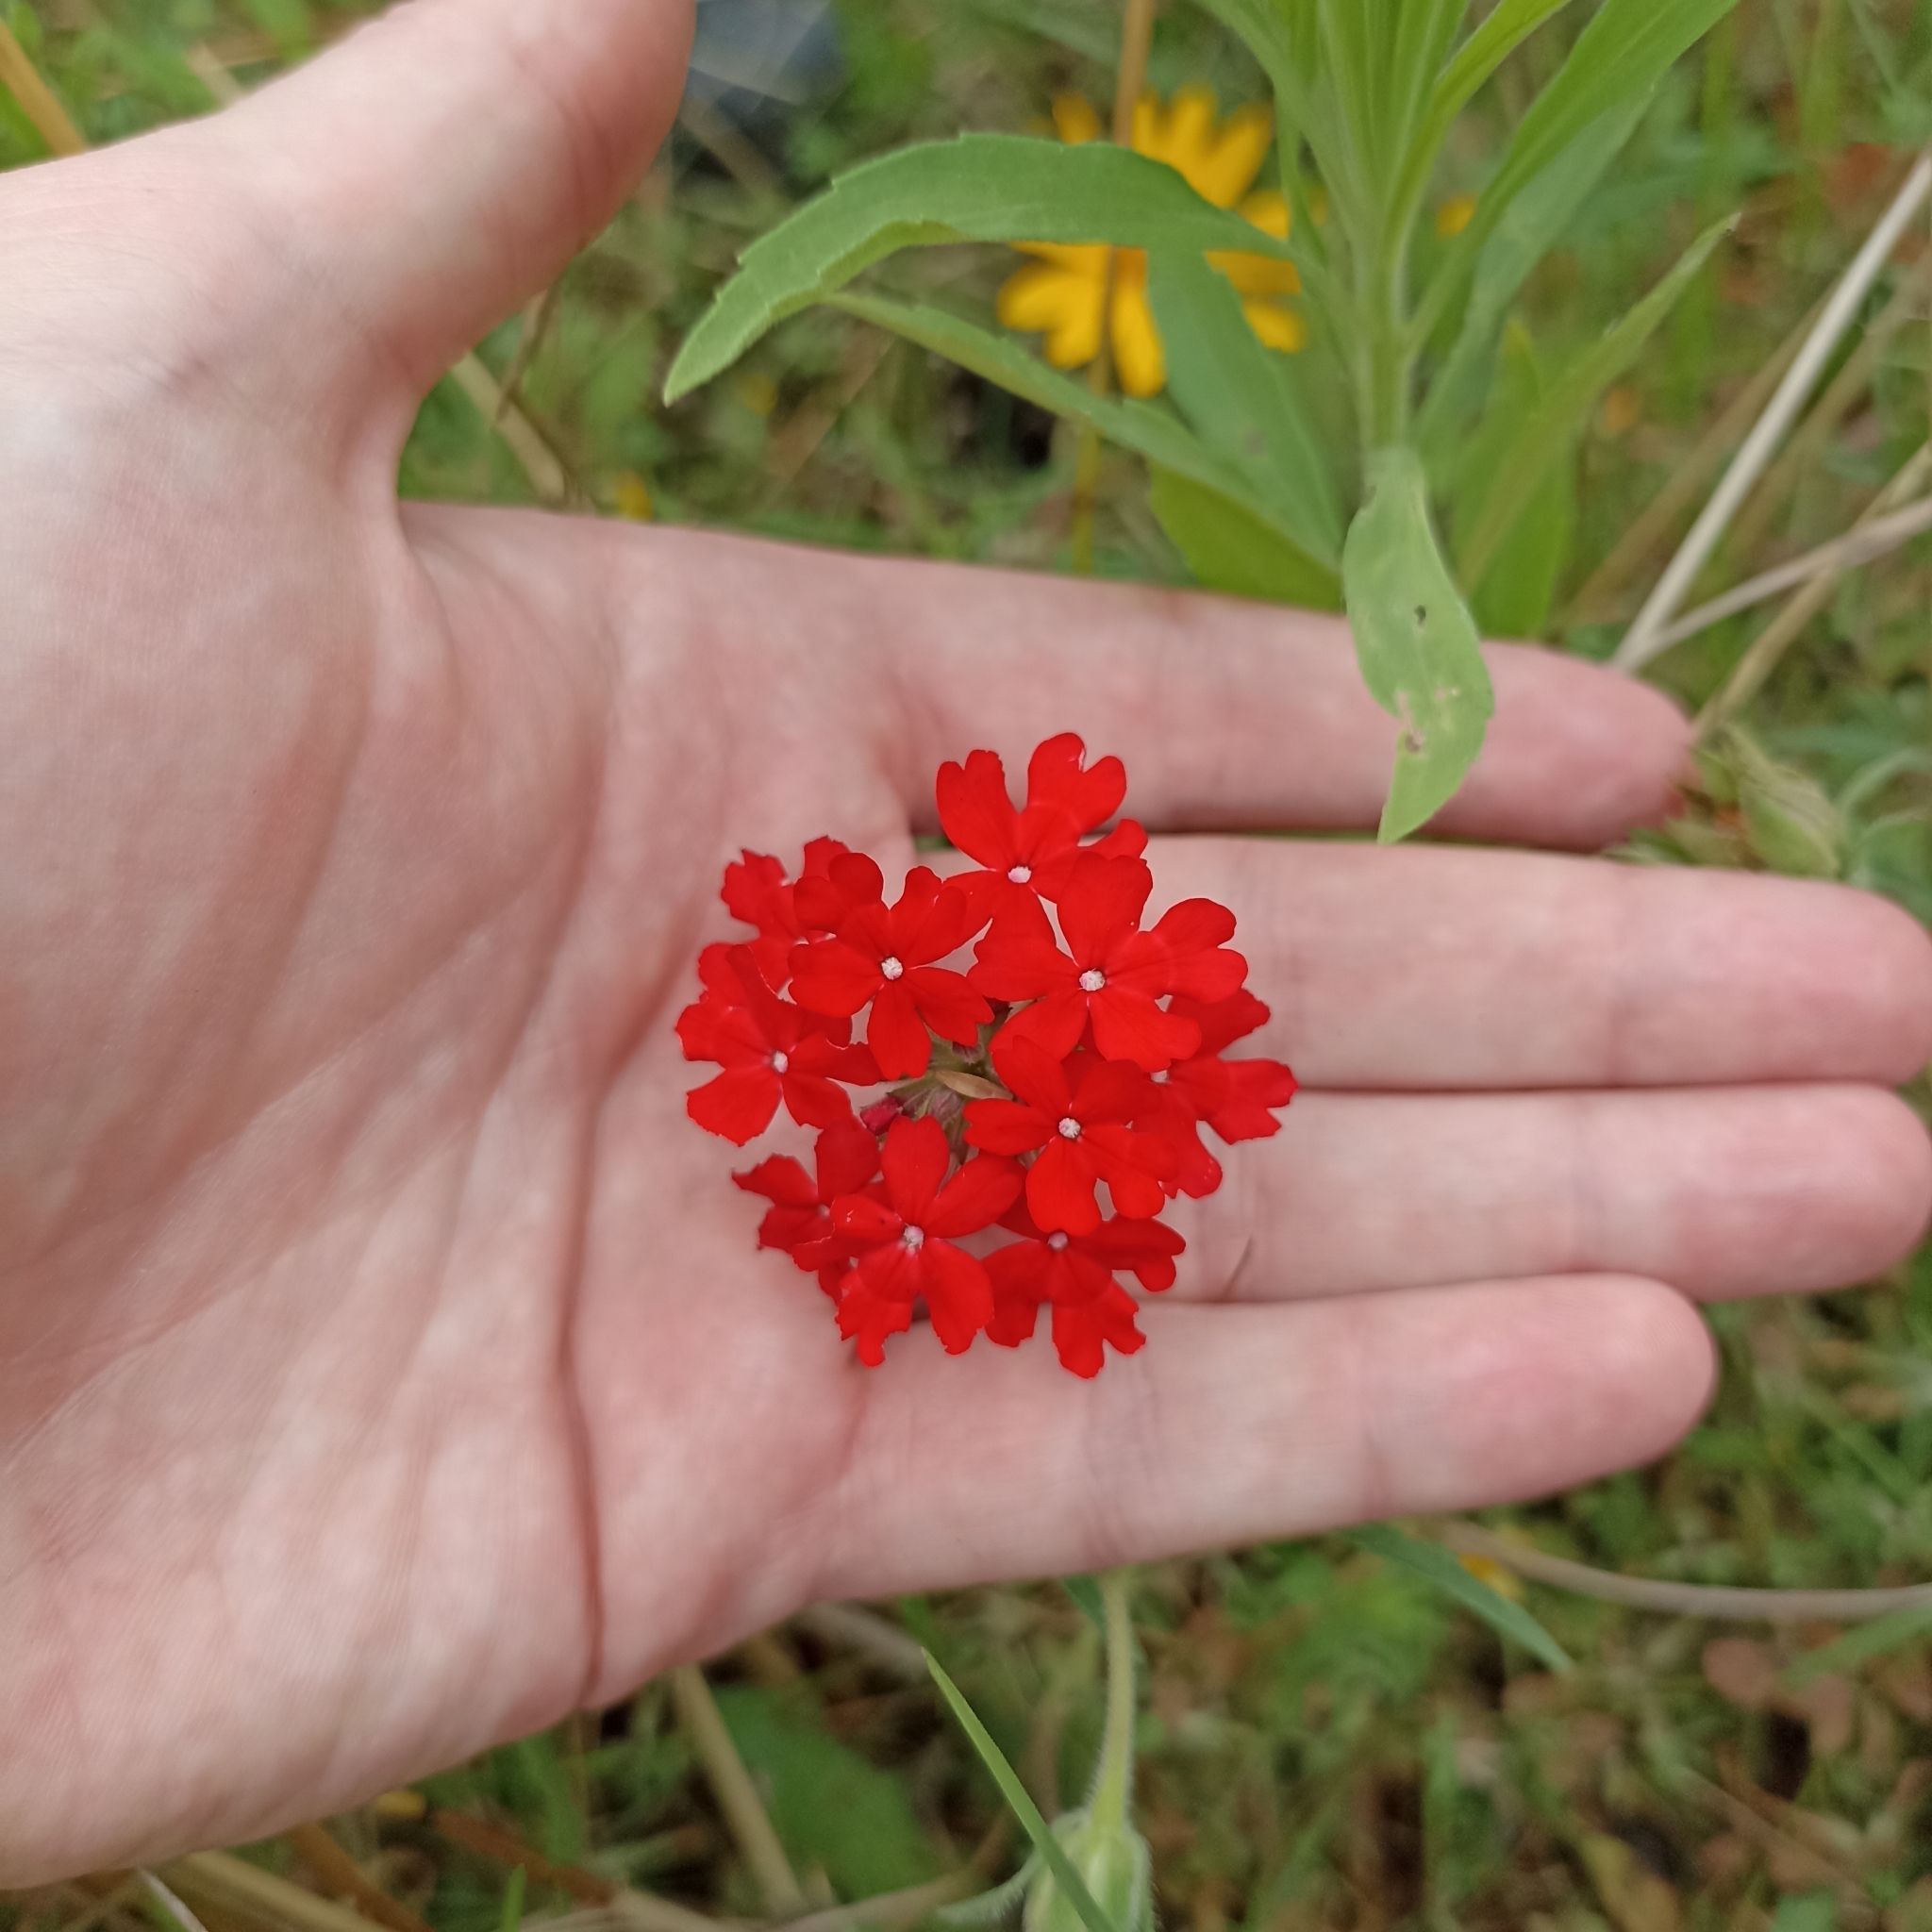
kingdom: Plantae
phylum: Tracheophyta
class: Magnoliopsida
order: Lamiales
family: Verbenaceae
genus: Verbena
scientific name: Verbena peruviana
